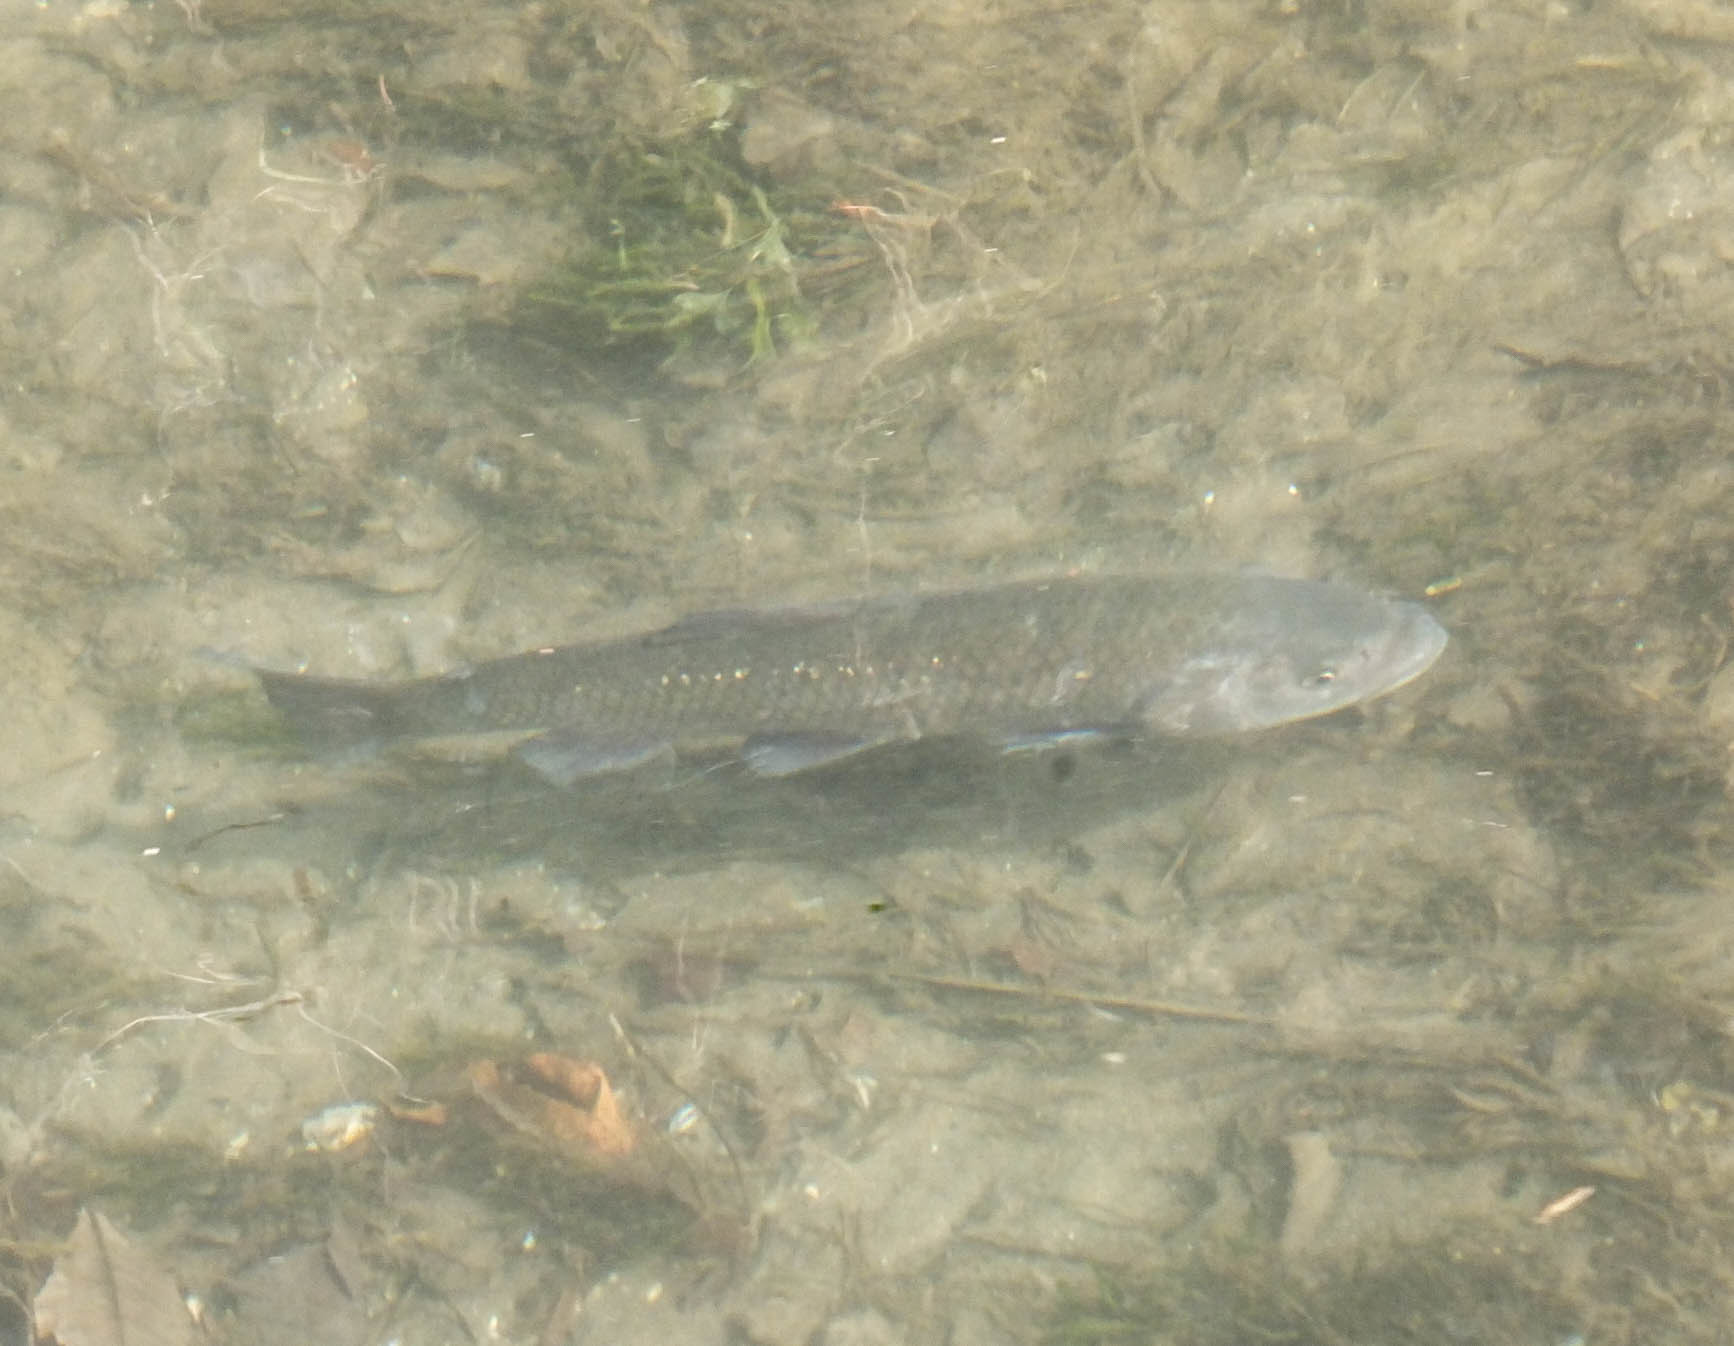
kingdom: Animalia
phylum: Chordata
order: Cypriniformes
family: Cyprinidae
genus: Squalius
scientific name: Squalius squalus
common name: Italian chub
